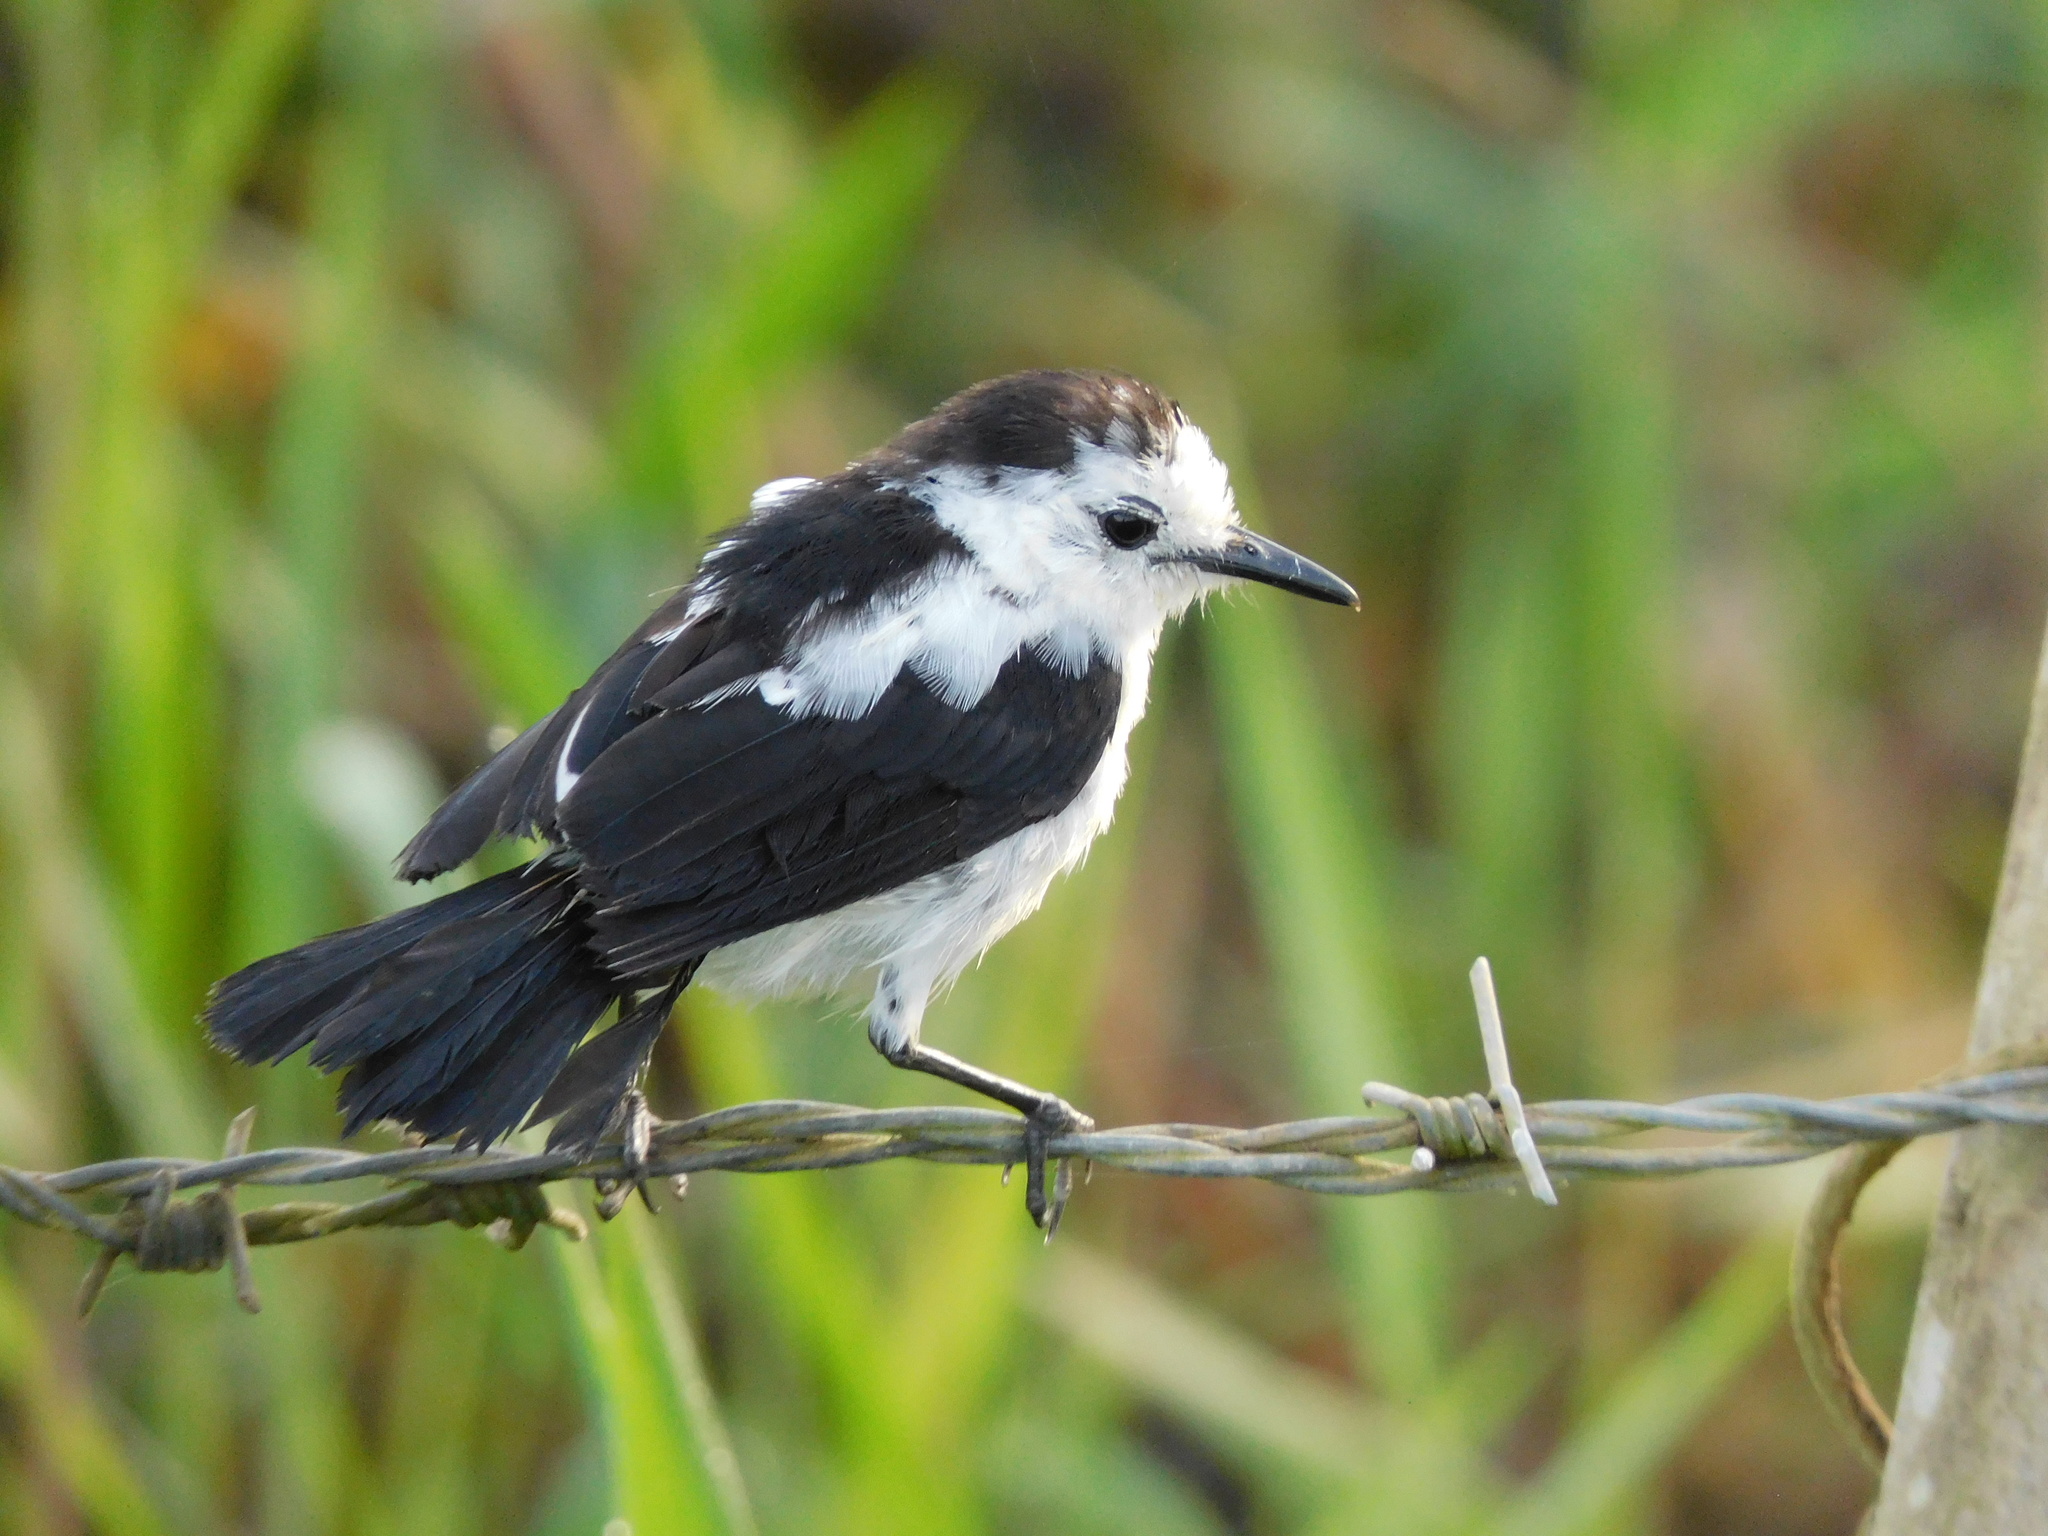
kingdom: Animalia
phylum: Chordata
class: Aves
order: Passeriformes
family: Tyrannidae
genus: Fluvicola
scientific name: Fluvicola pica
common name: Pied water-tyrant
